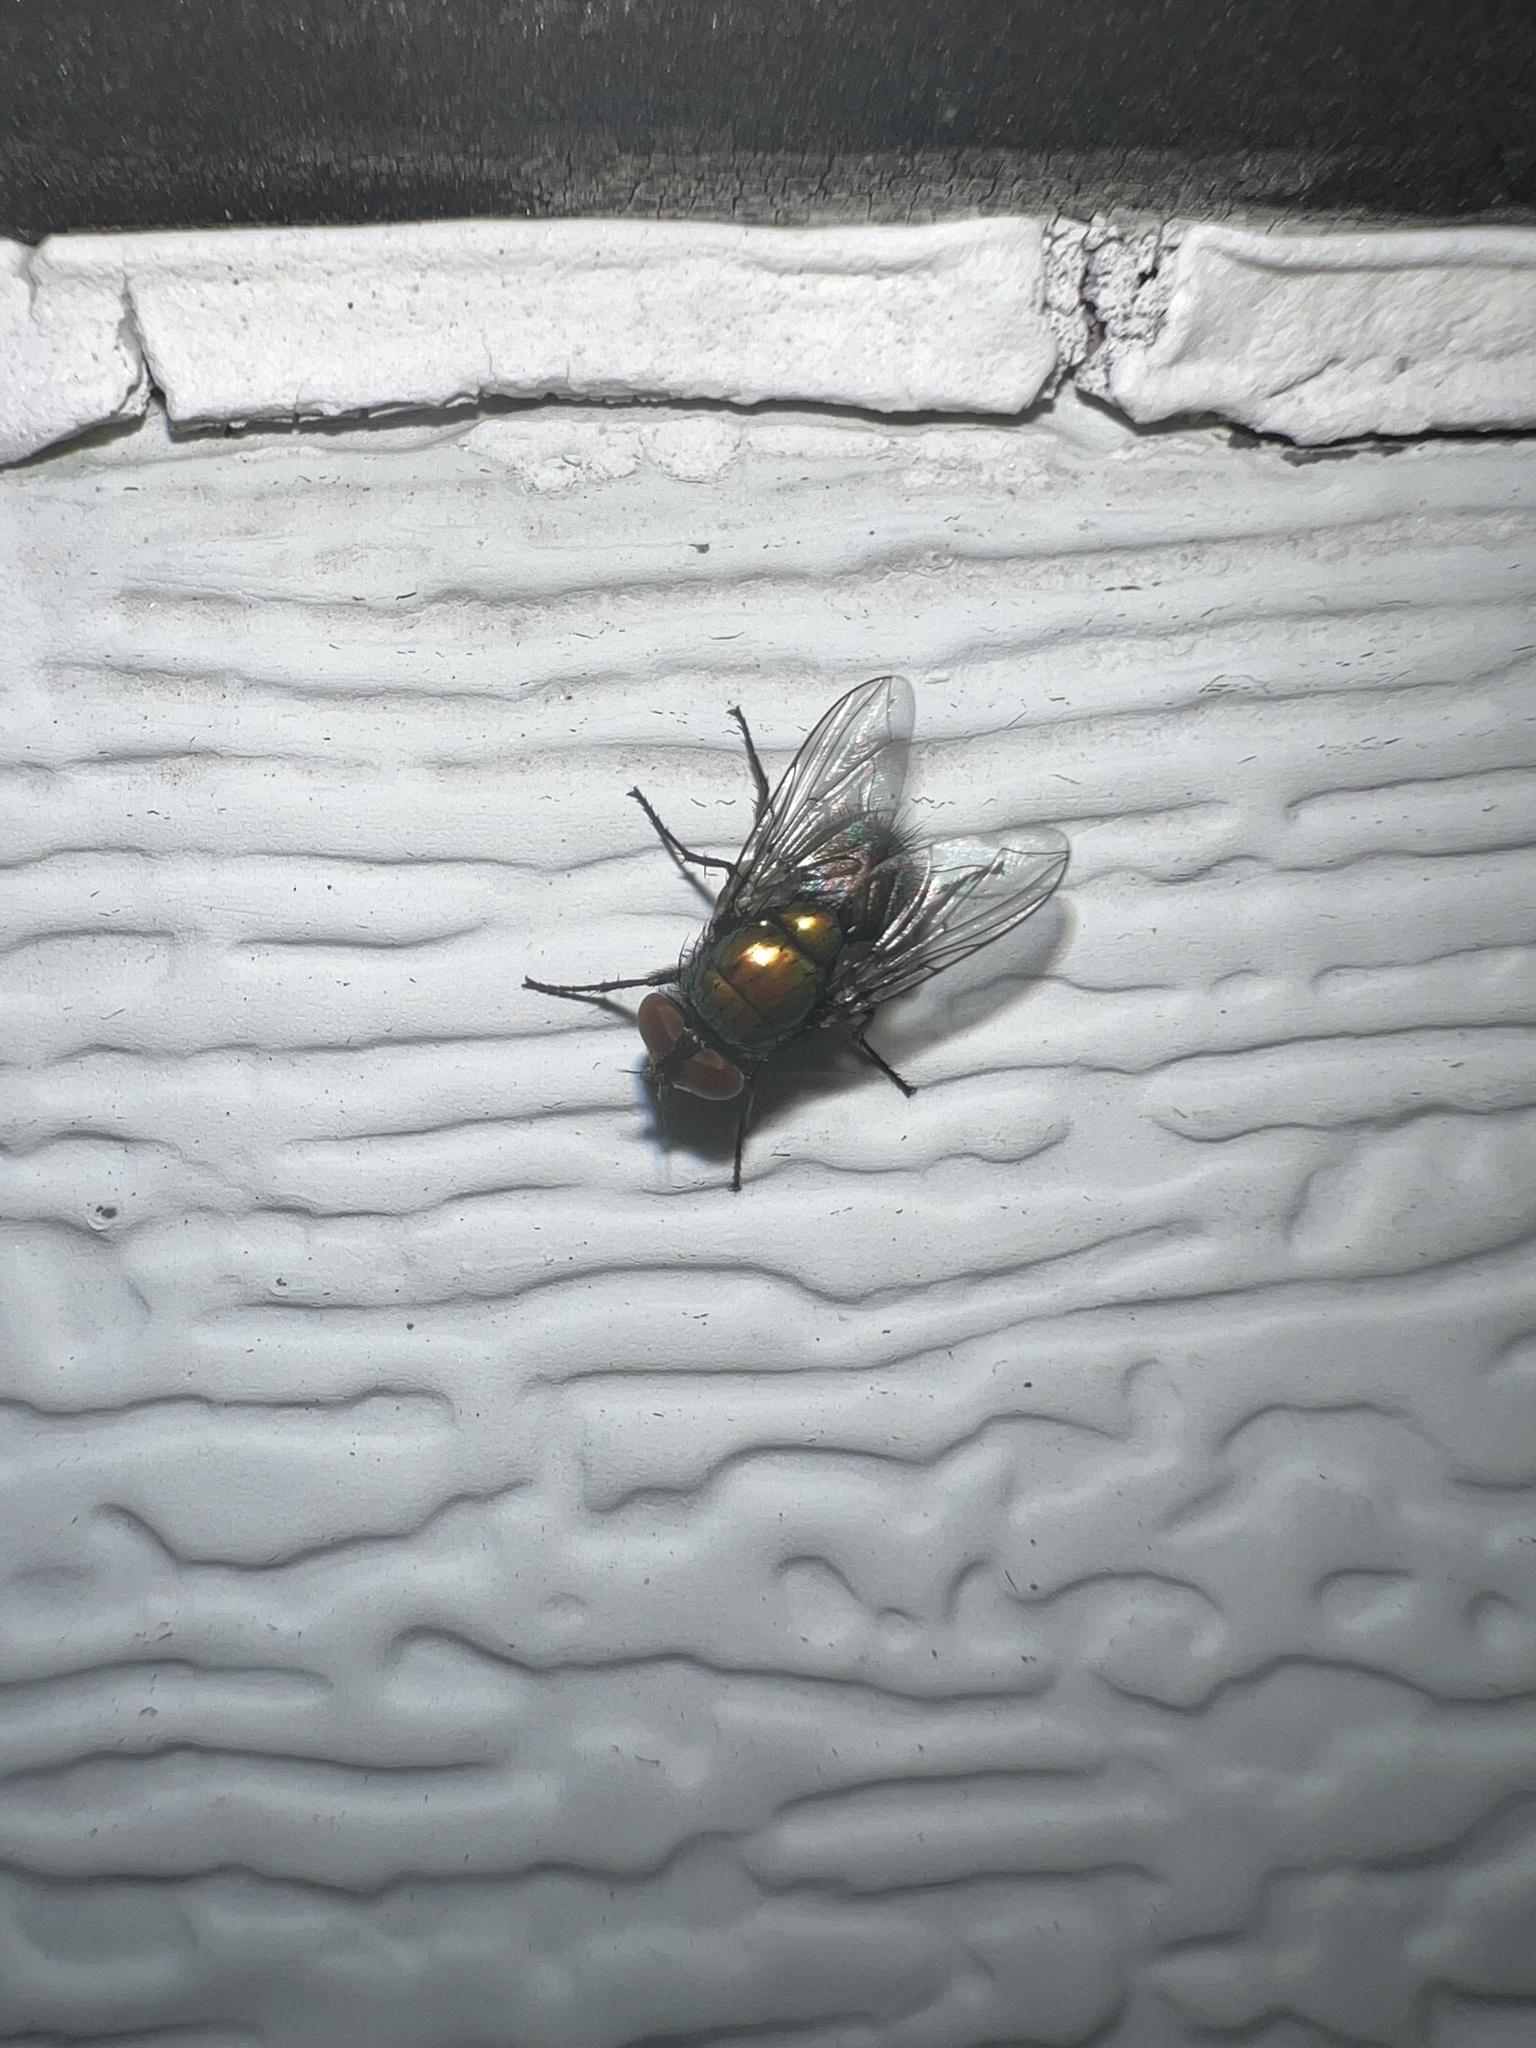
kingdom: Animalia
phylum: Arthropoda
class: Insecta
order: Diptera
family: Calliphoridae
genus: Lucilia
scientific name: Lucilia sericata
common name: Blow fly
